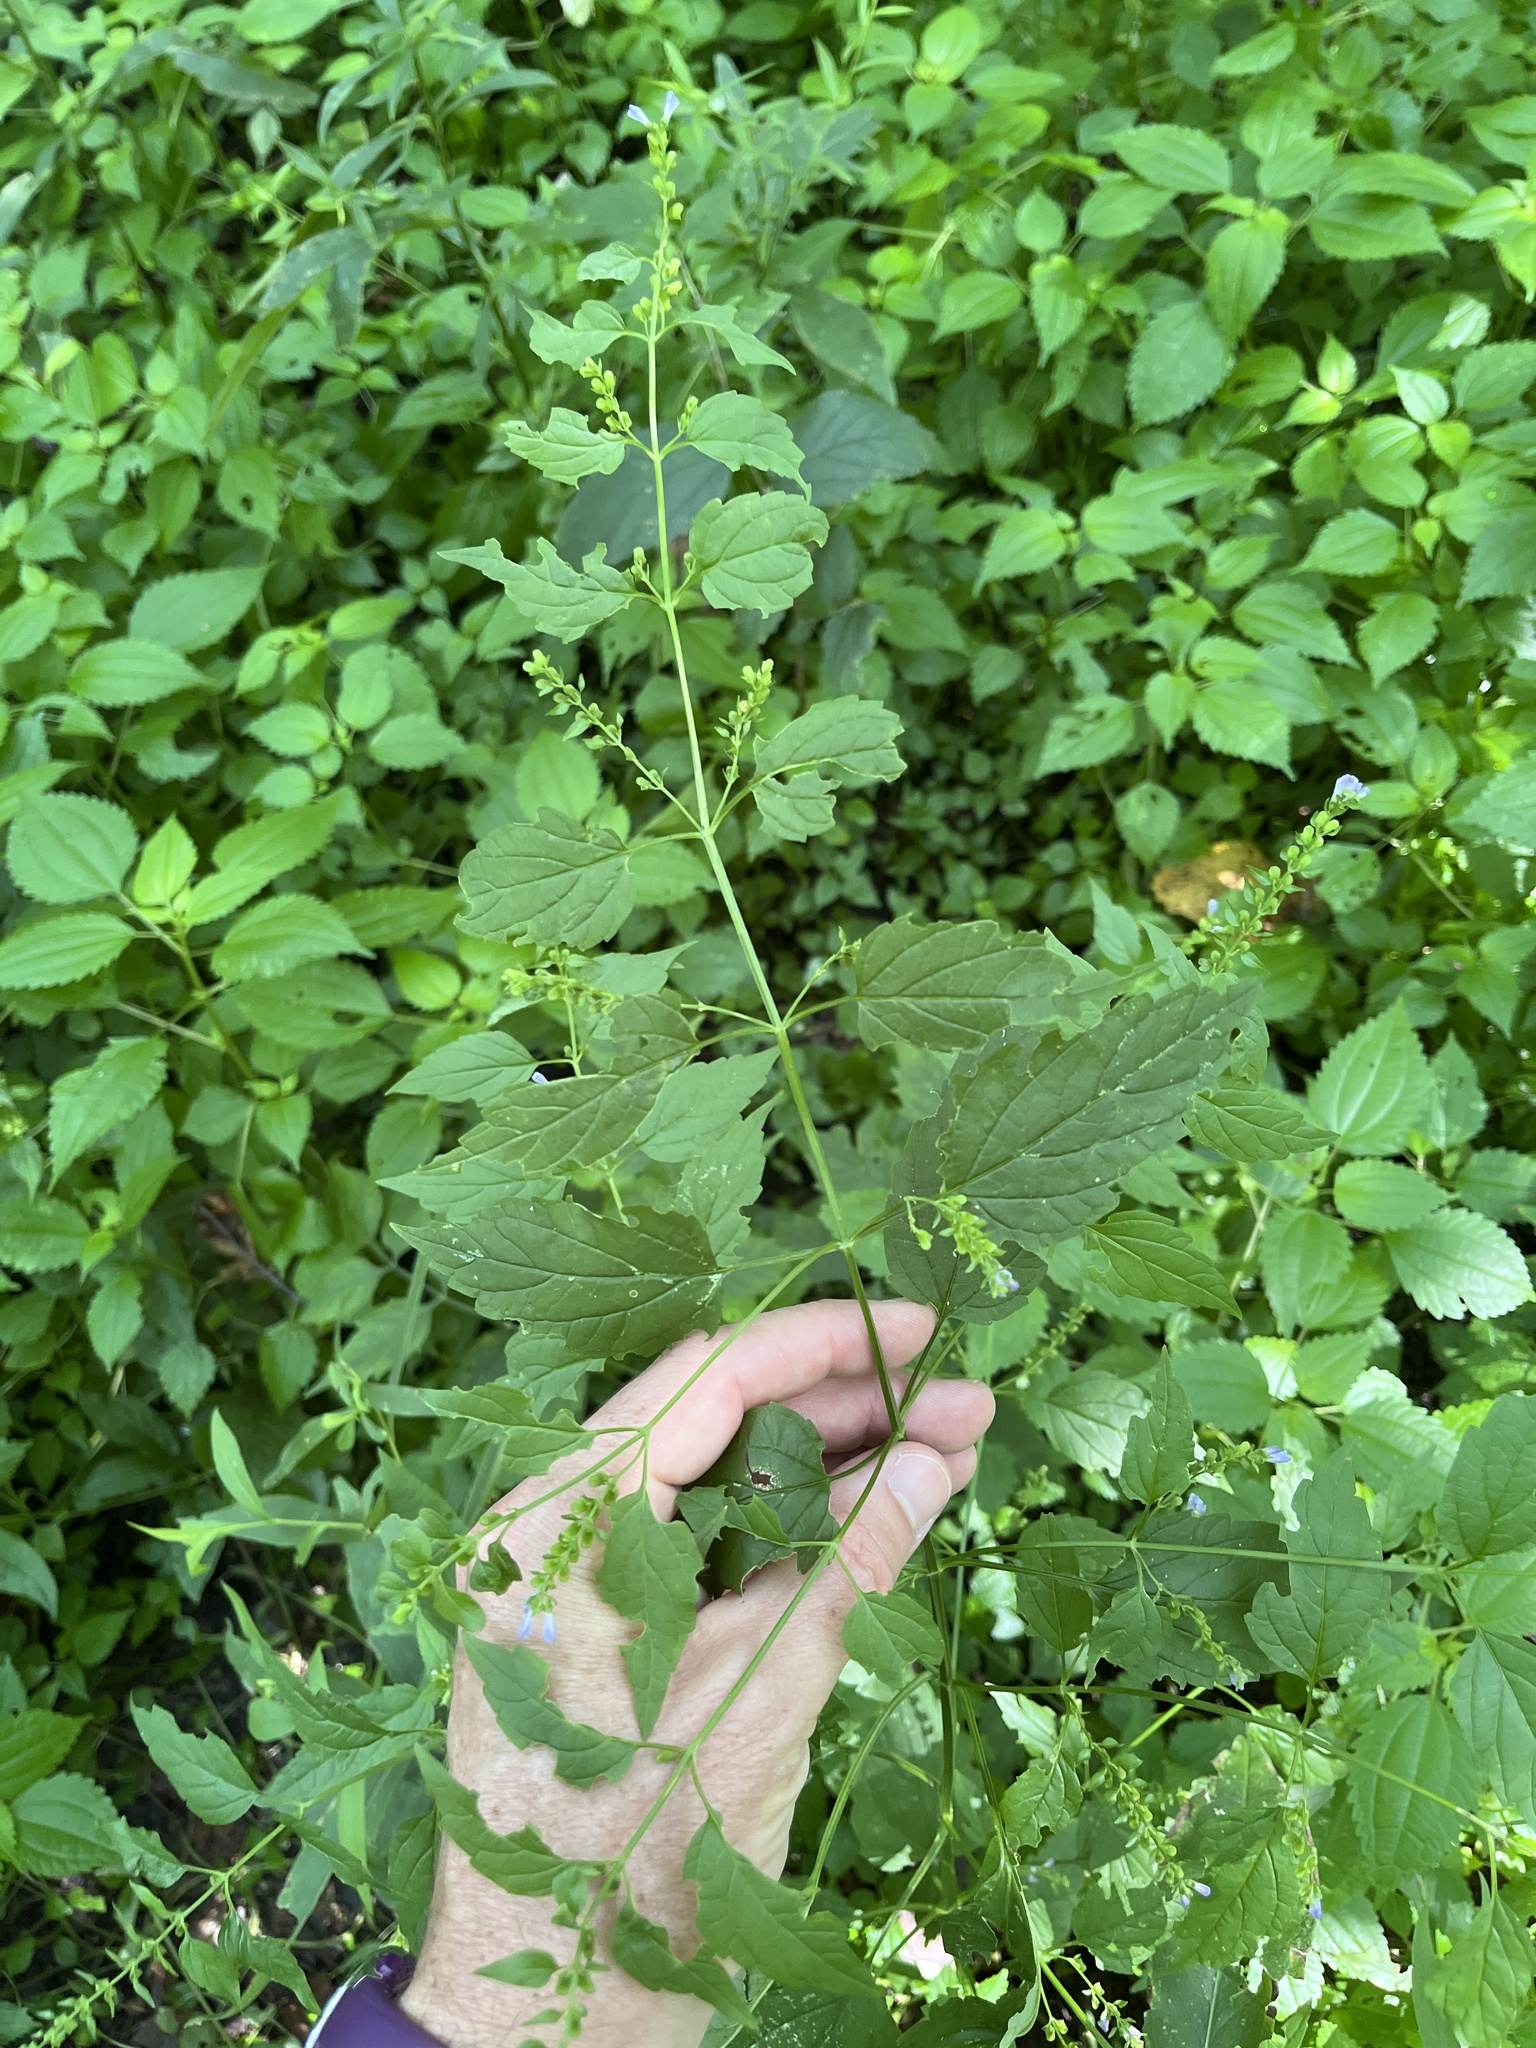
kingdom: Plantae
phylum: Tracheophyta
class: Magnoliopsida
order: Lamiales
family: Lamiaceae
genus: Scutellaria
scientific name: Scutellaria lateriflora
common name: Blue skullcap
